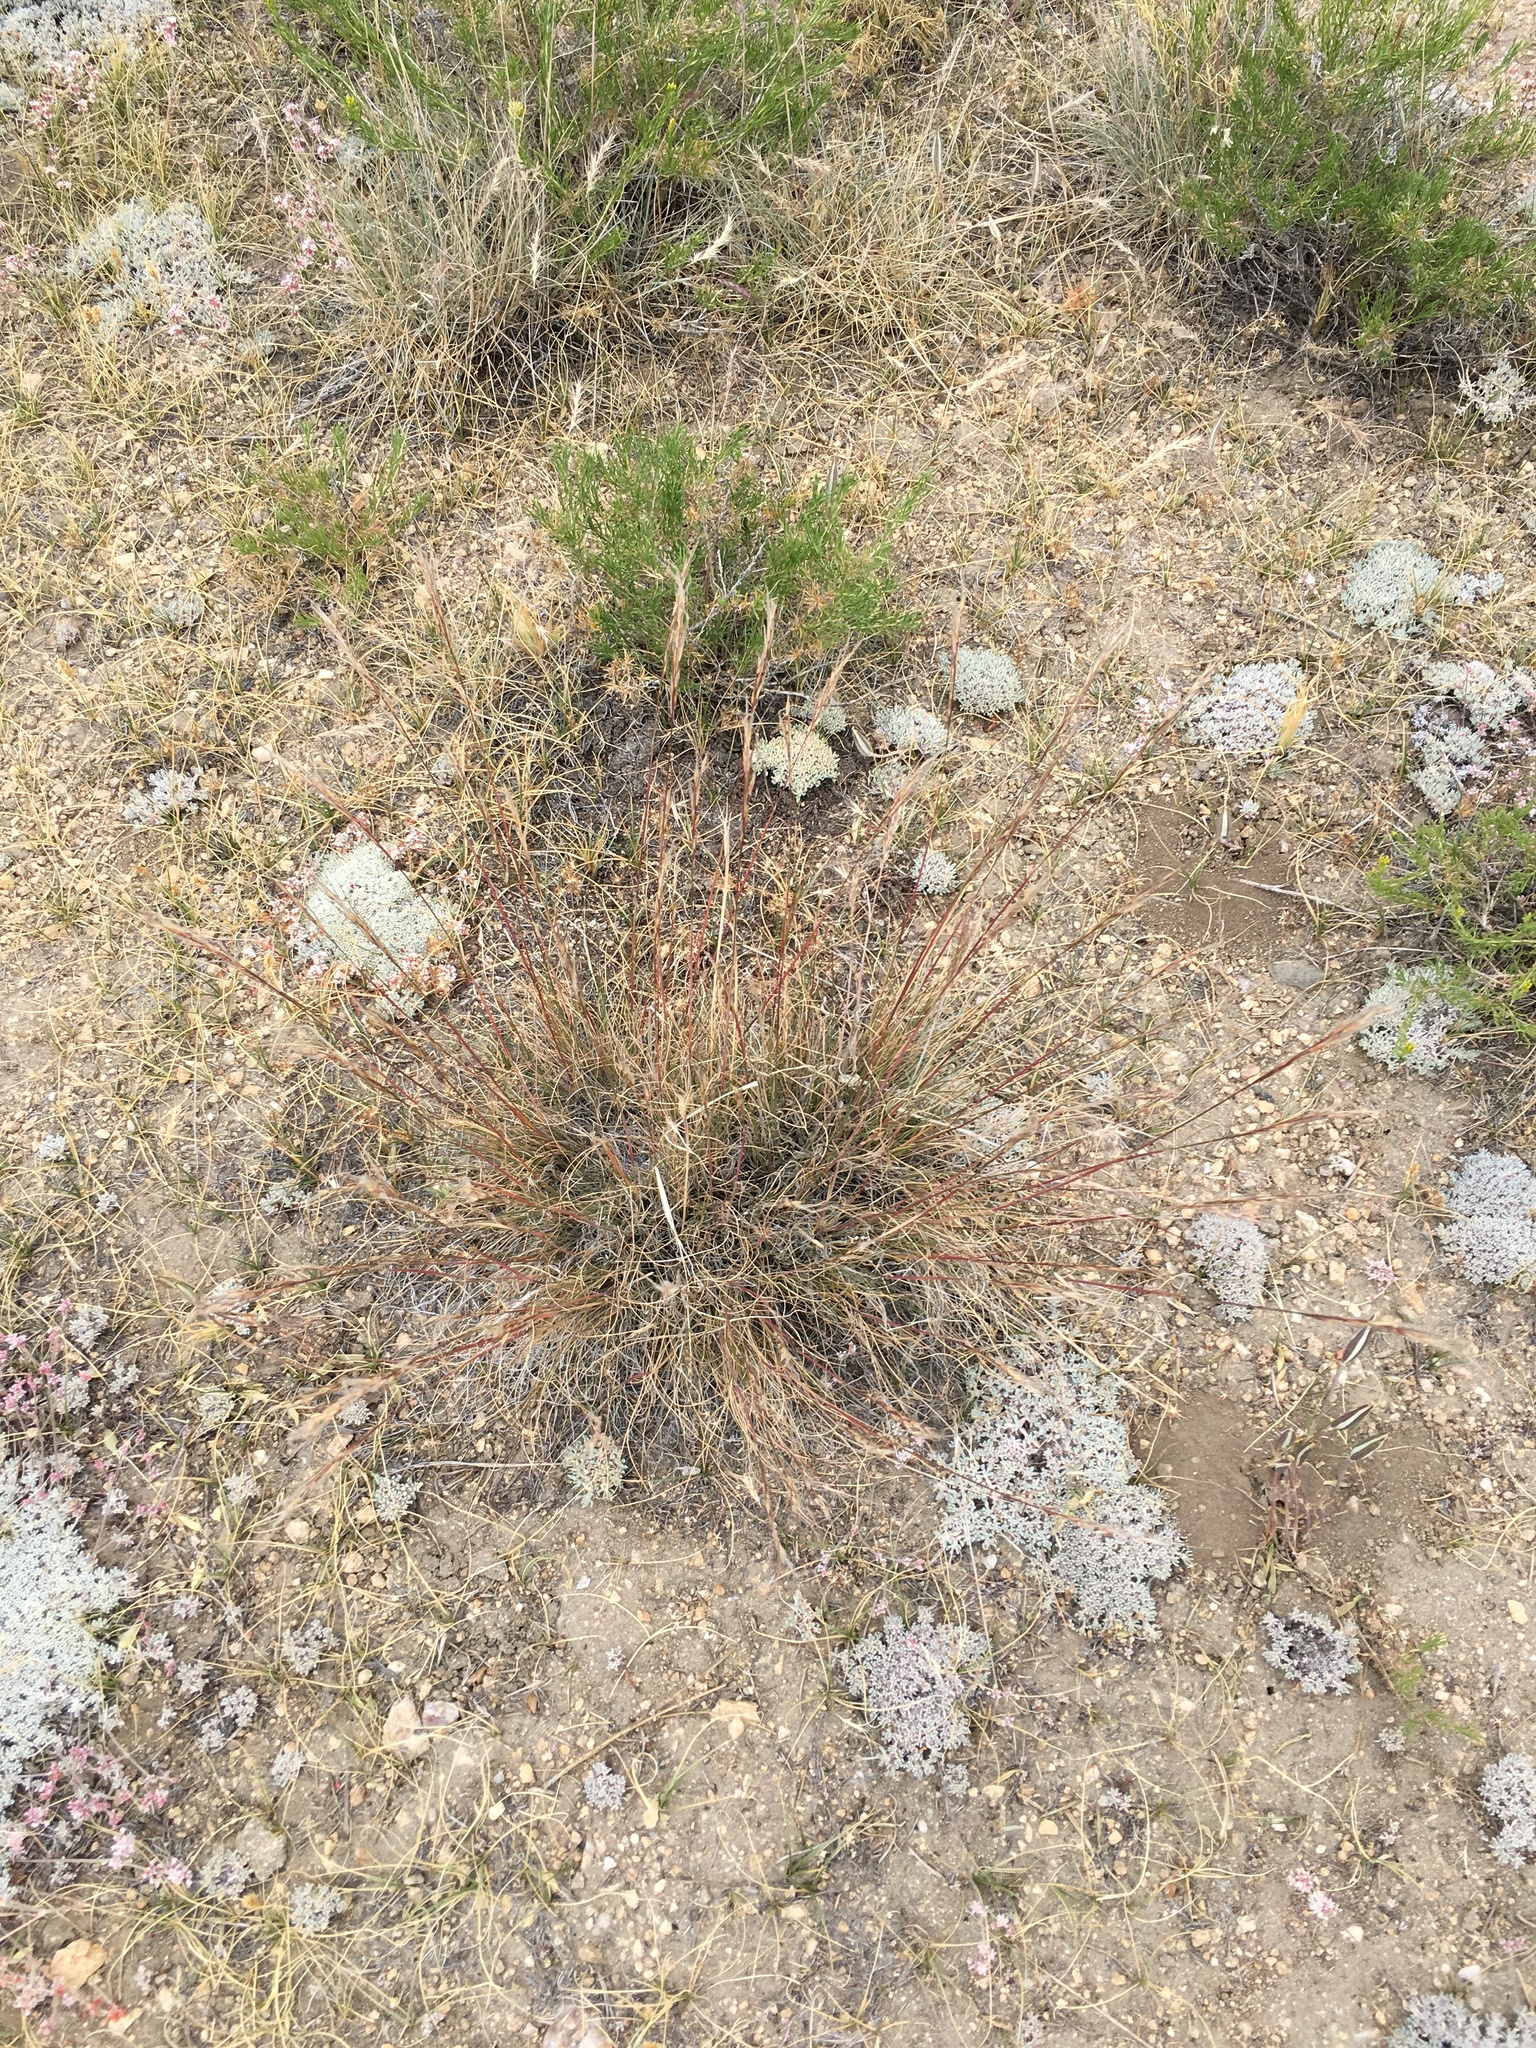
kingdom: Plantae
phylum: Tracheophyta
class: Liliopsida
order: Poales
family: Poaceae
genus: Eriocoma
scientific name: Eriocoma thurberiana
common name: Thurber's needlegrass
